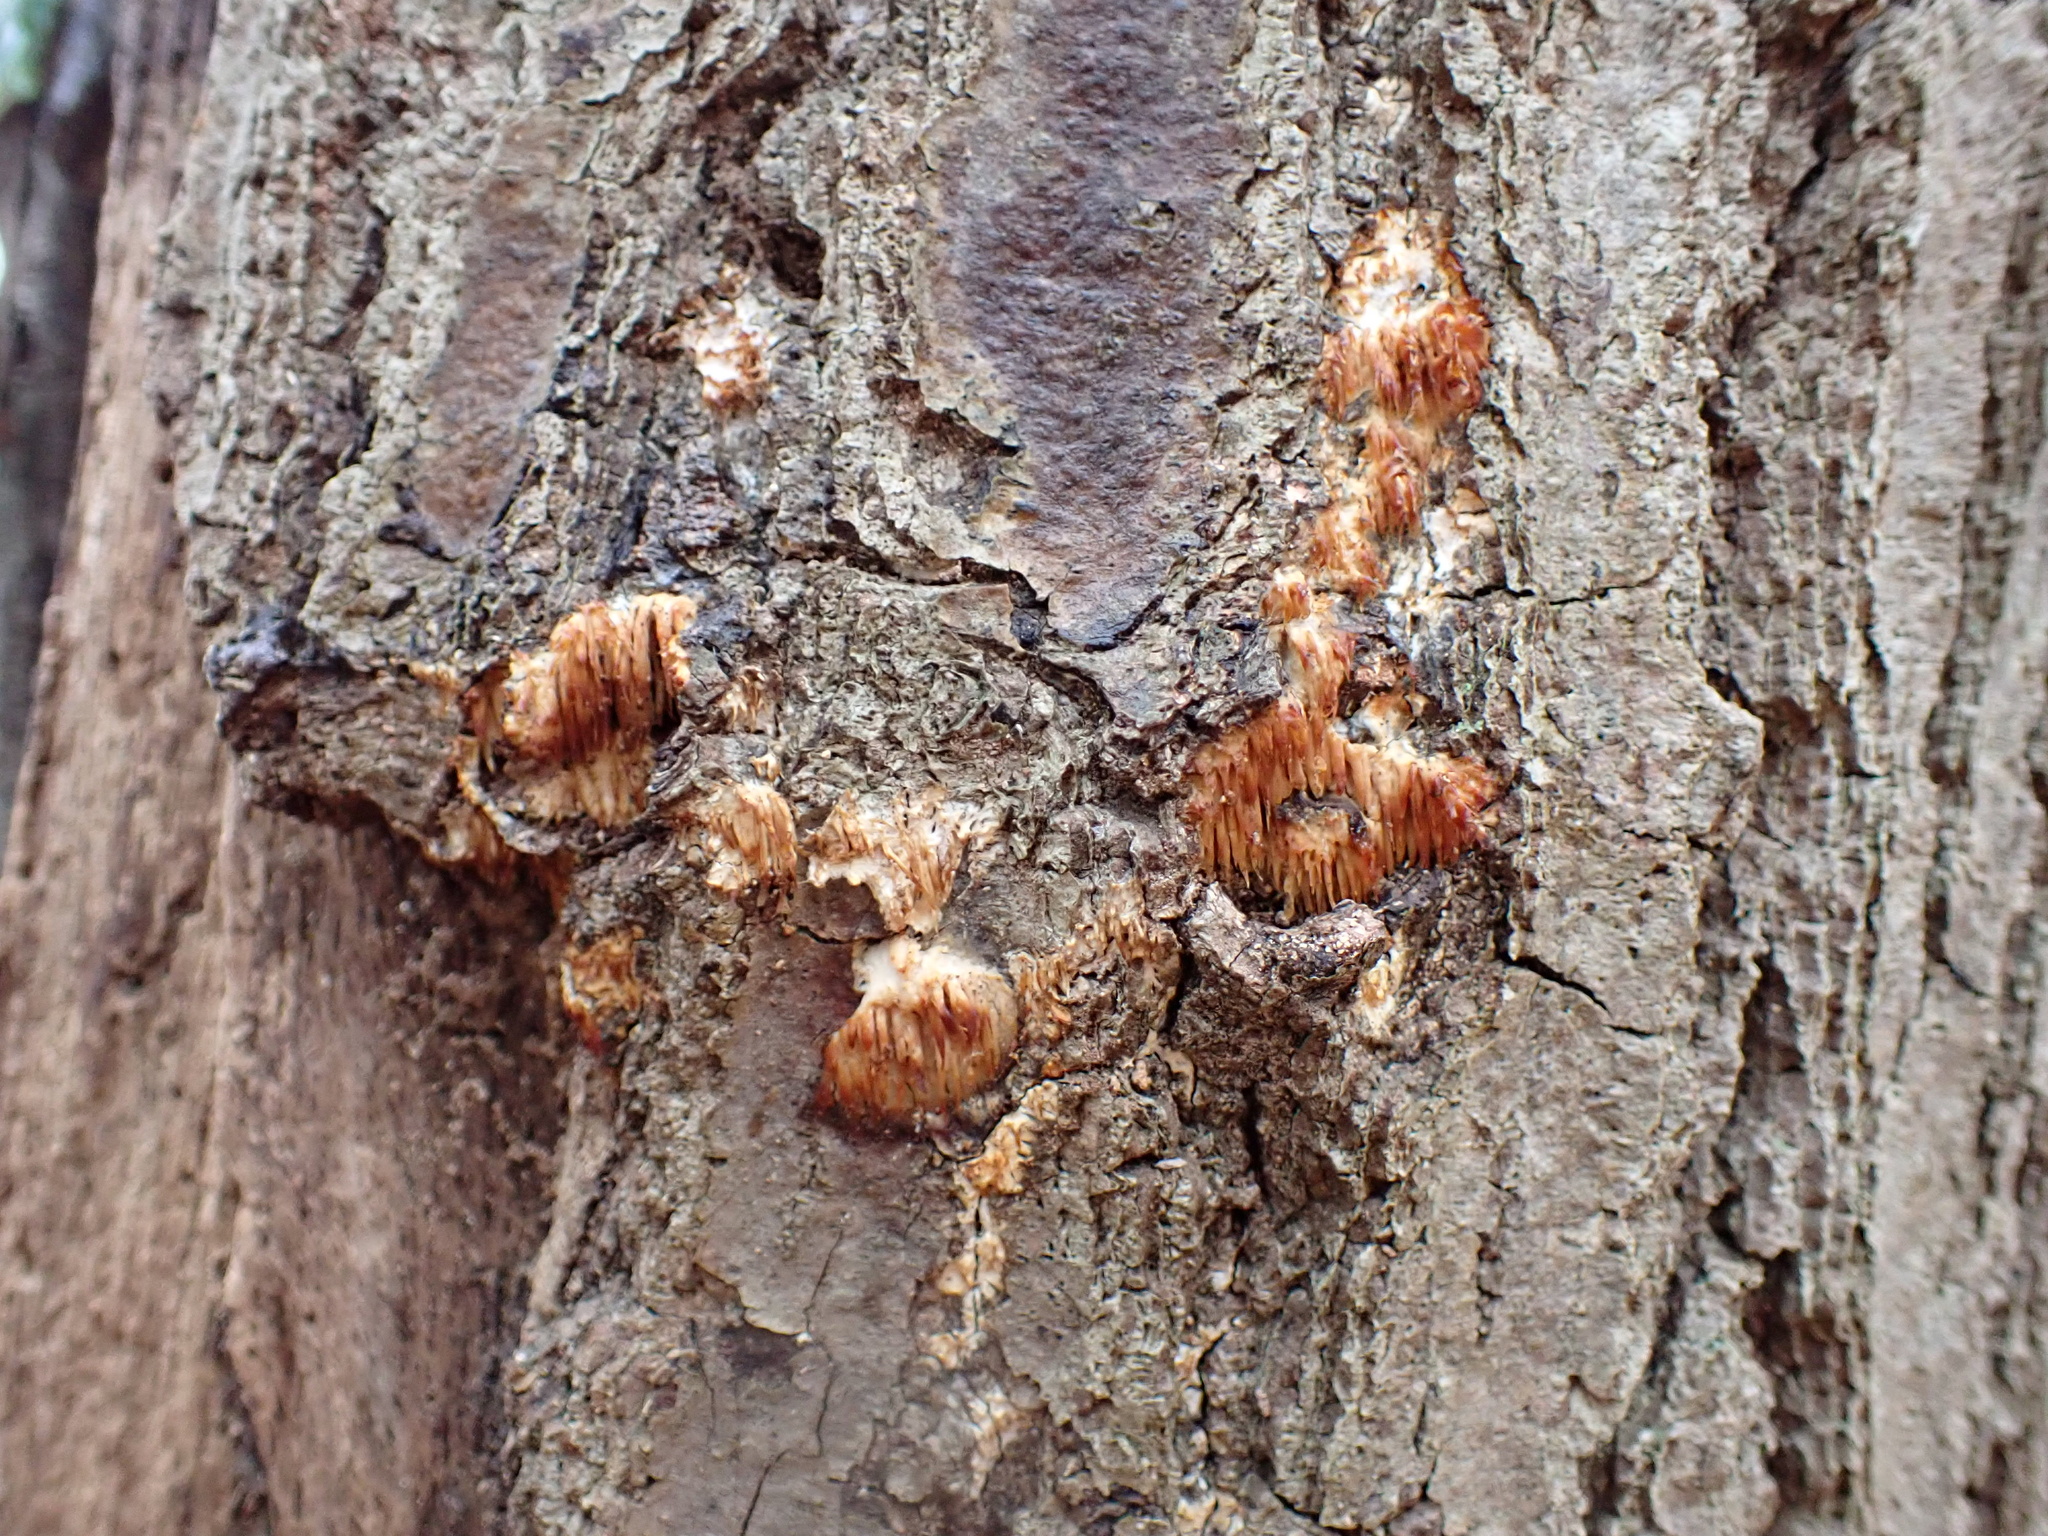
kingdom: Fungi
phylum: Basidiomycota
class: Agaricomycetes
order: Agaricales
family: Radulomycetaceae
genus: Radulomyces
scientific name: Radulomyces copelandii
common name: Asian beauty
